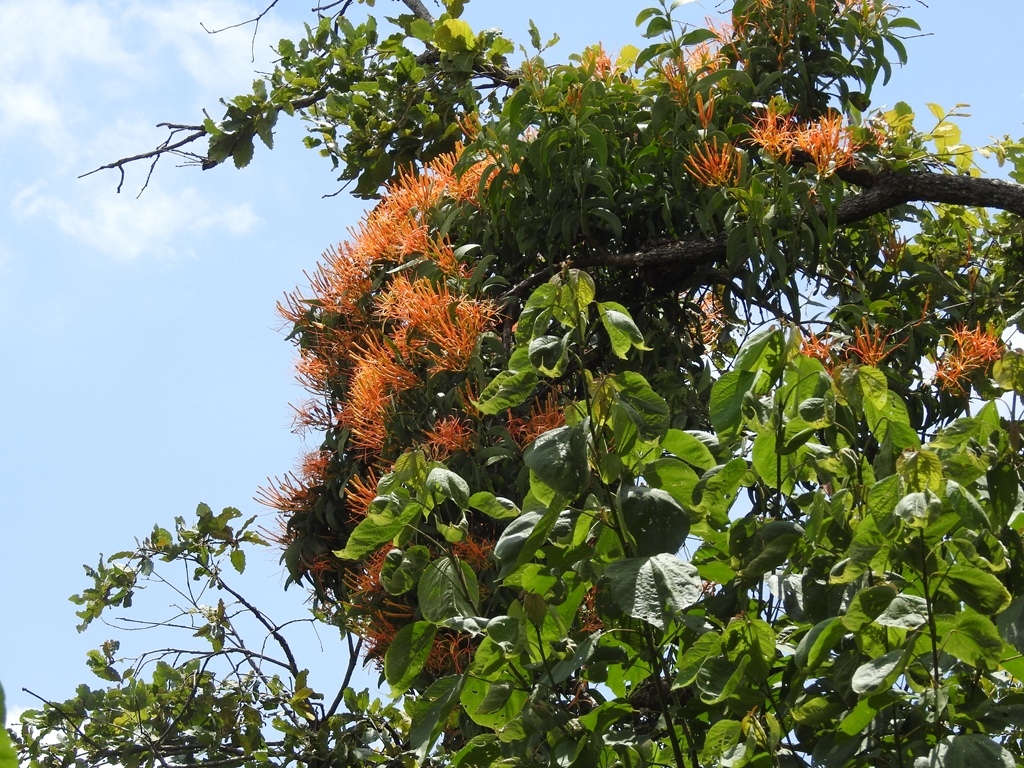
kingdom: Plantae
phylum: Tracheophyta
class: Magnoliopsida
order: Santalales
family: Loranthaceae
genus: Psittacanthus
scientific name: Psittacanthus calyculatus
